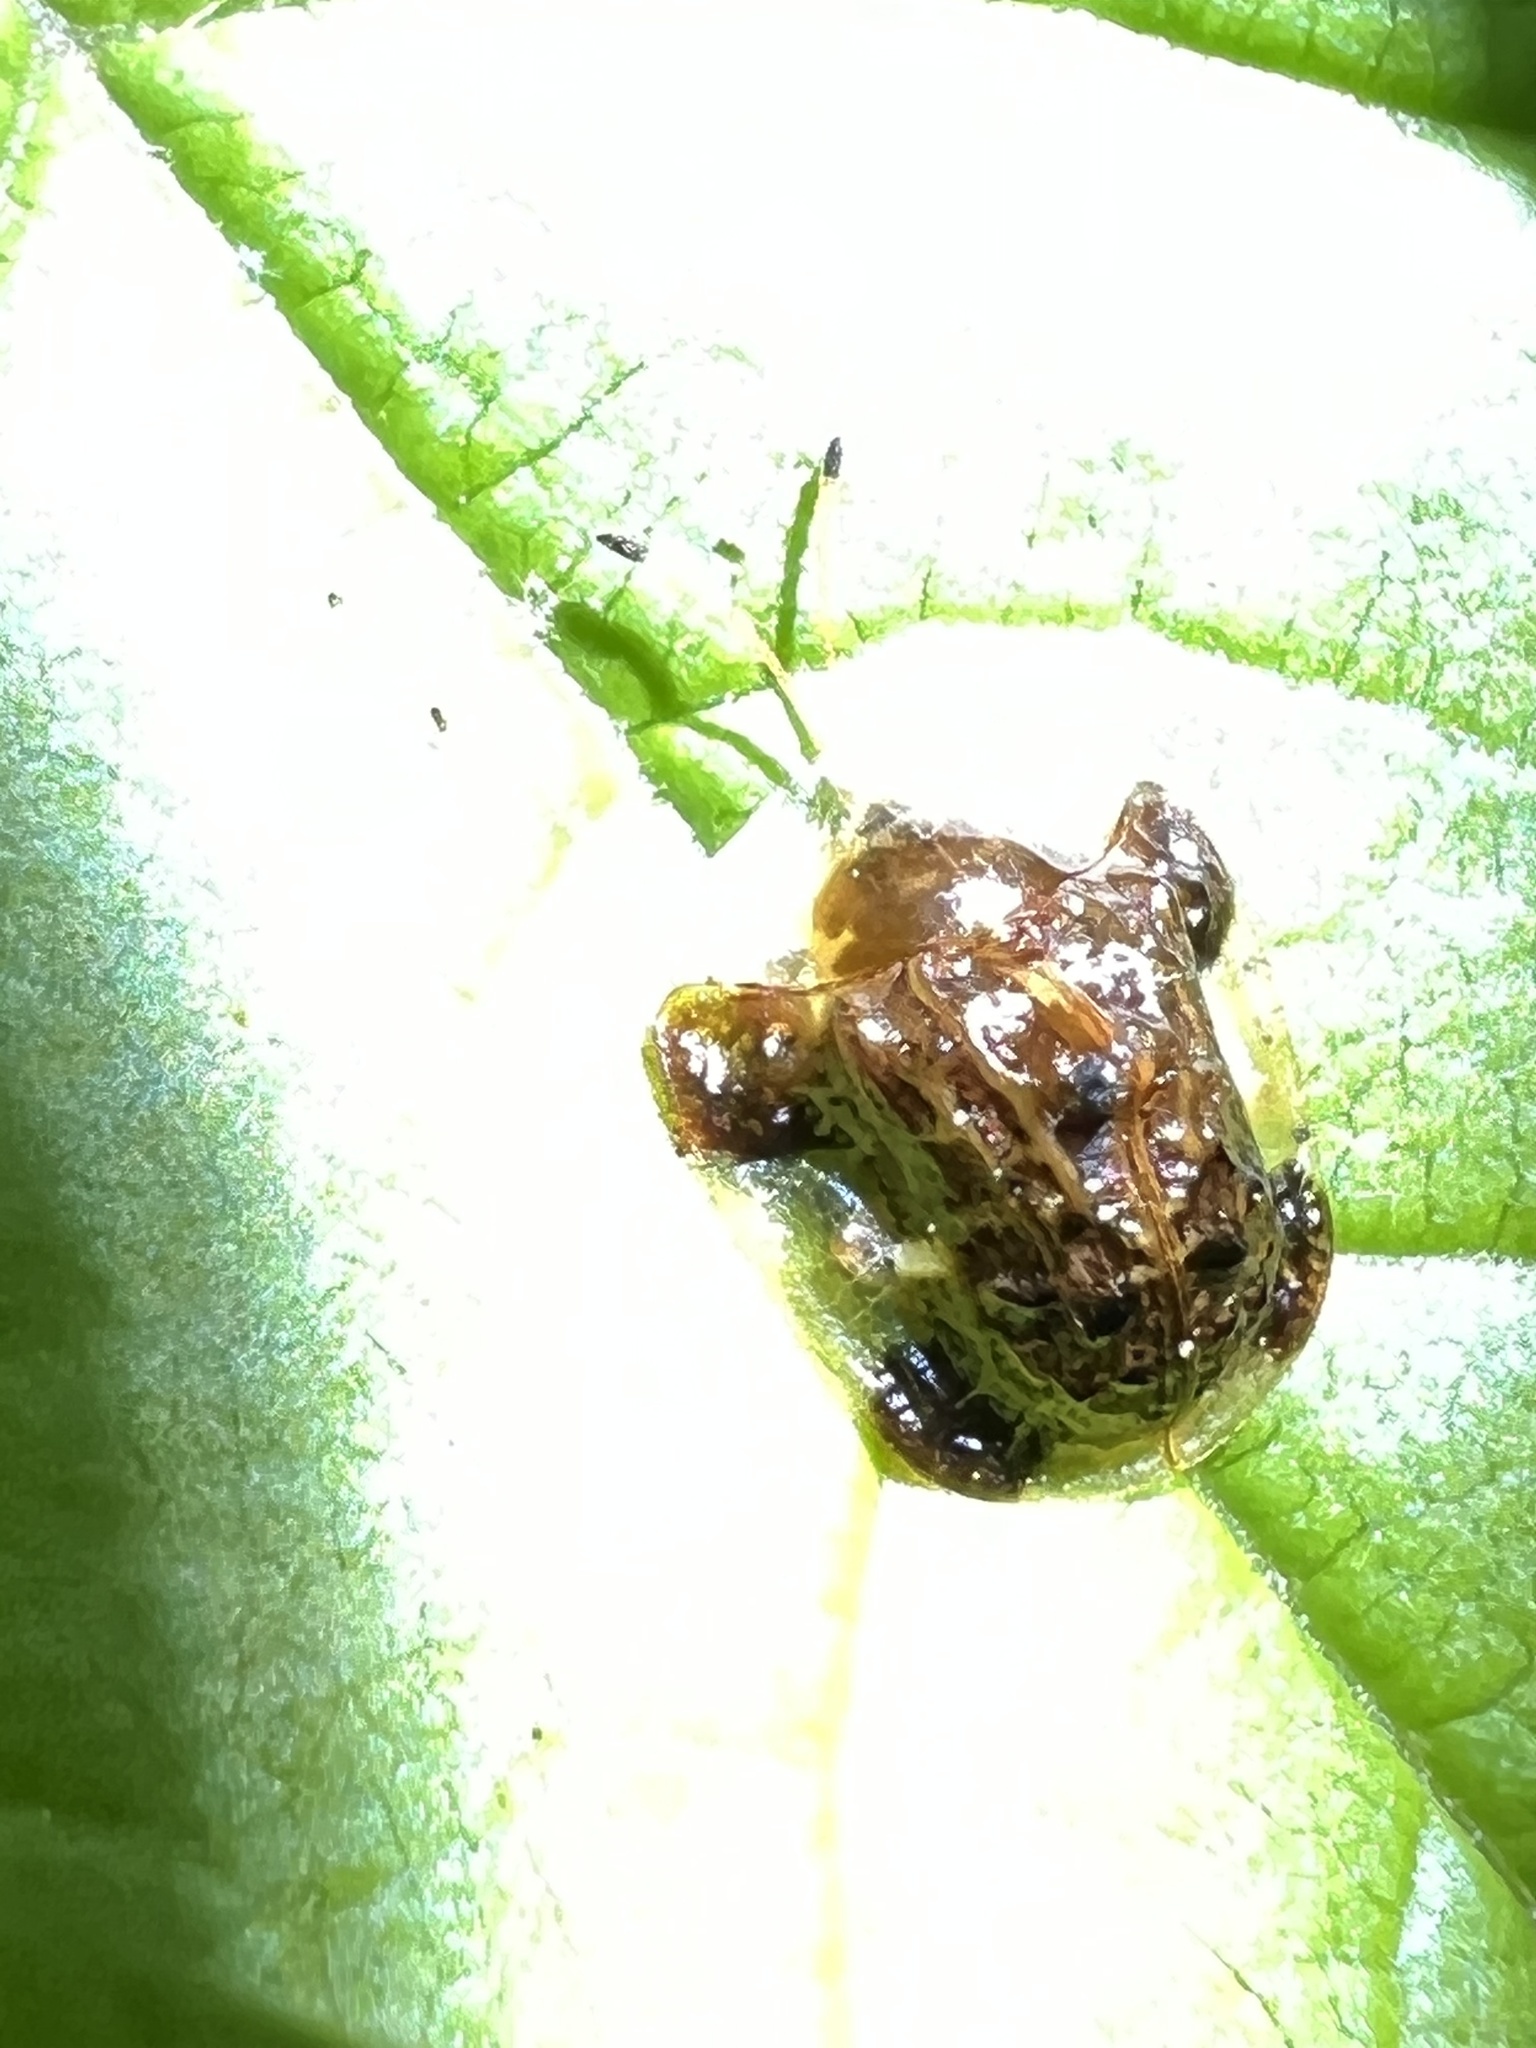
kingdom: Animalia
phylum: Arthropoda
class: Insecta
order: Coleoptera
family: Chrysomelidae
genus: Helocassis
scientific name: Helocassis clavata
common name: Clavate tortoise beetle
